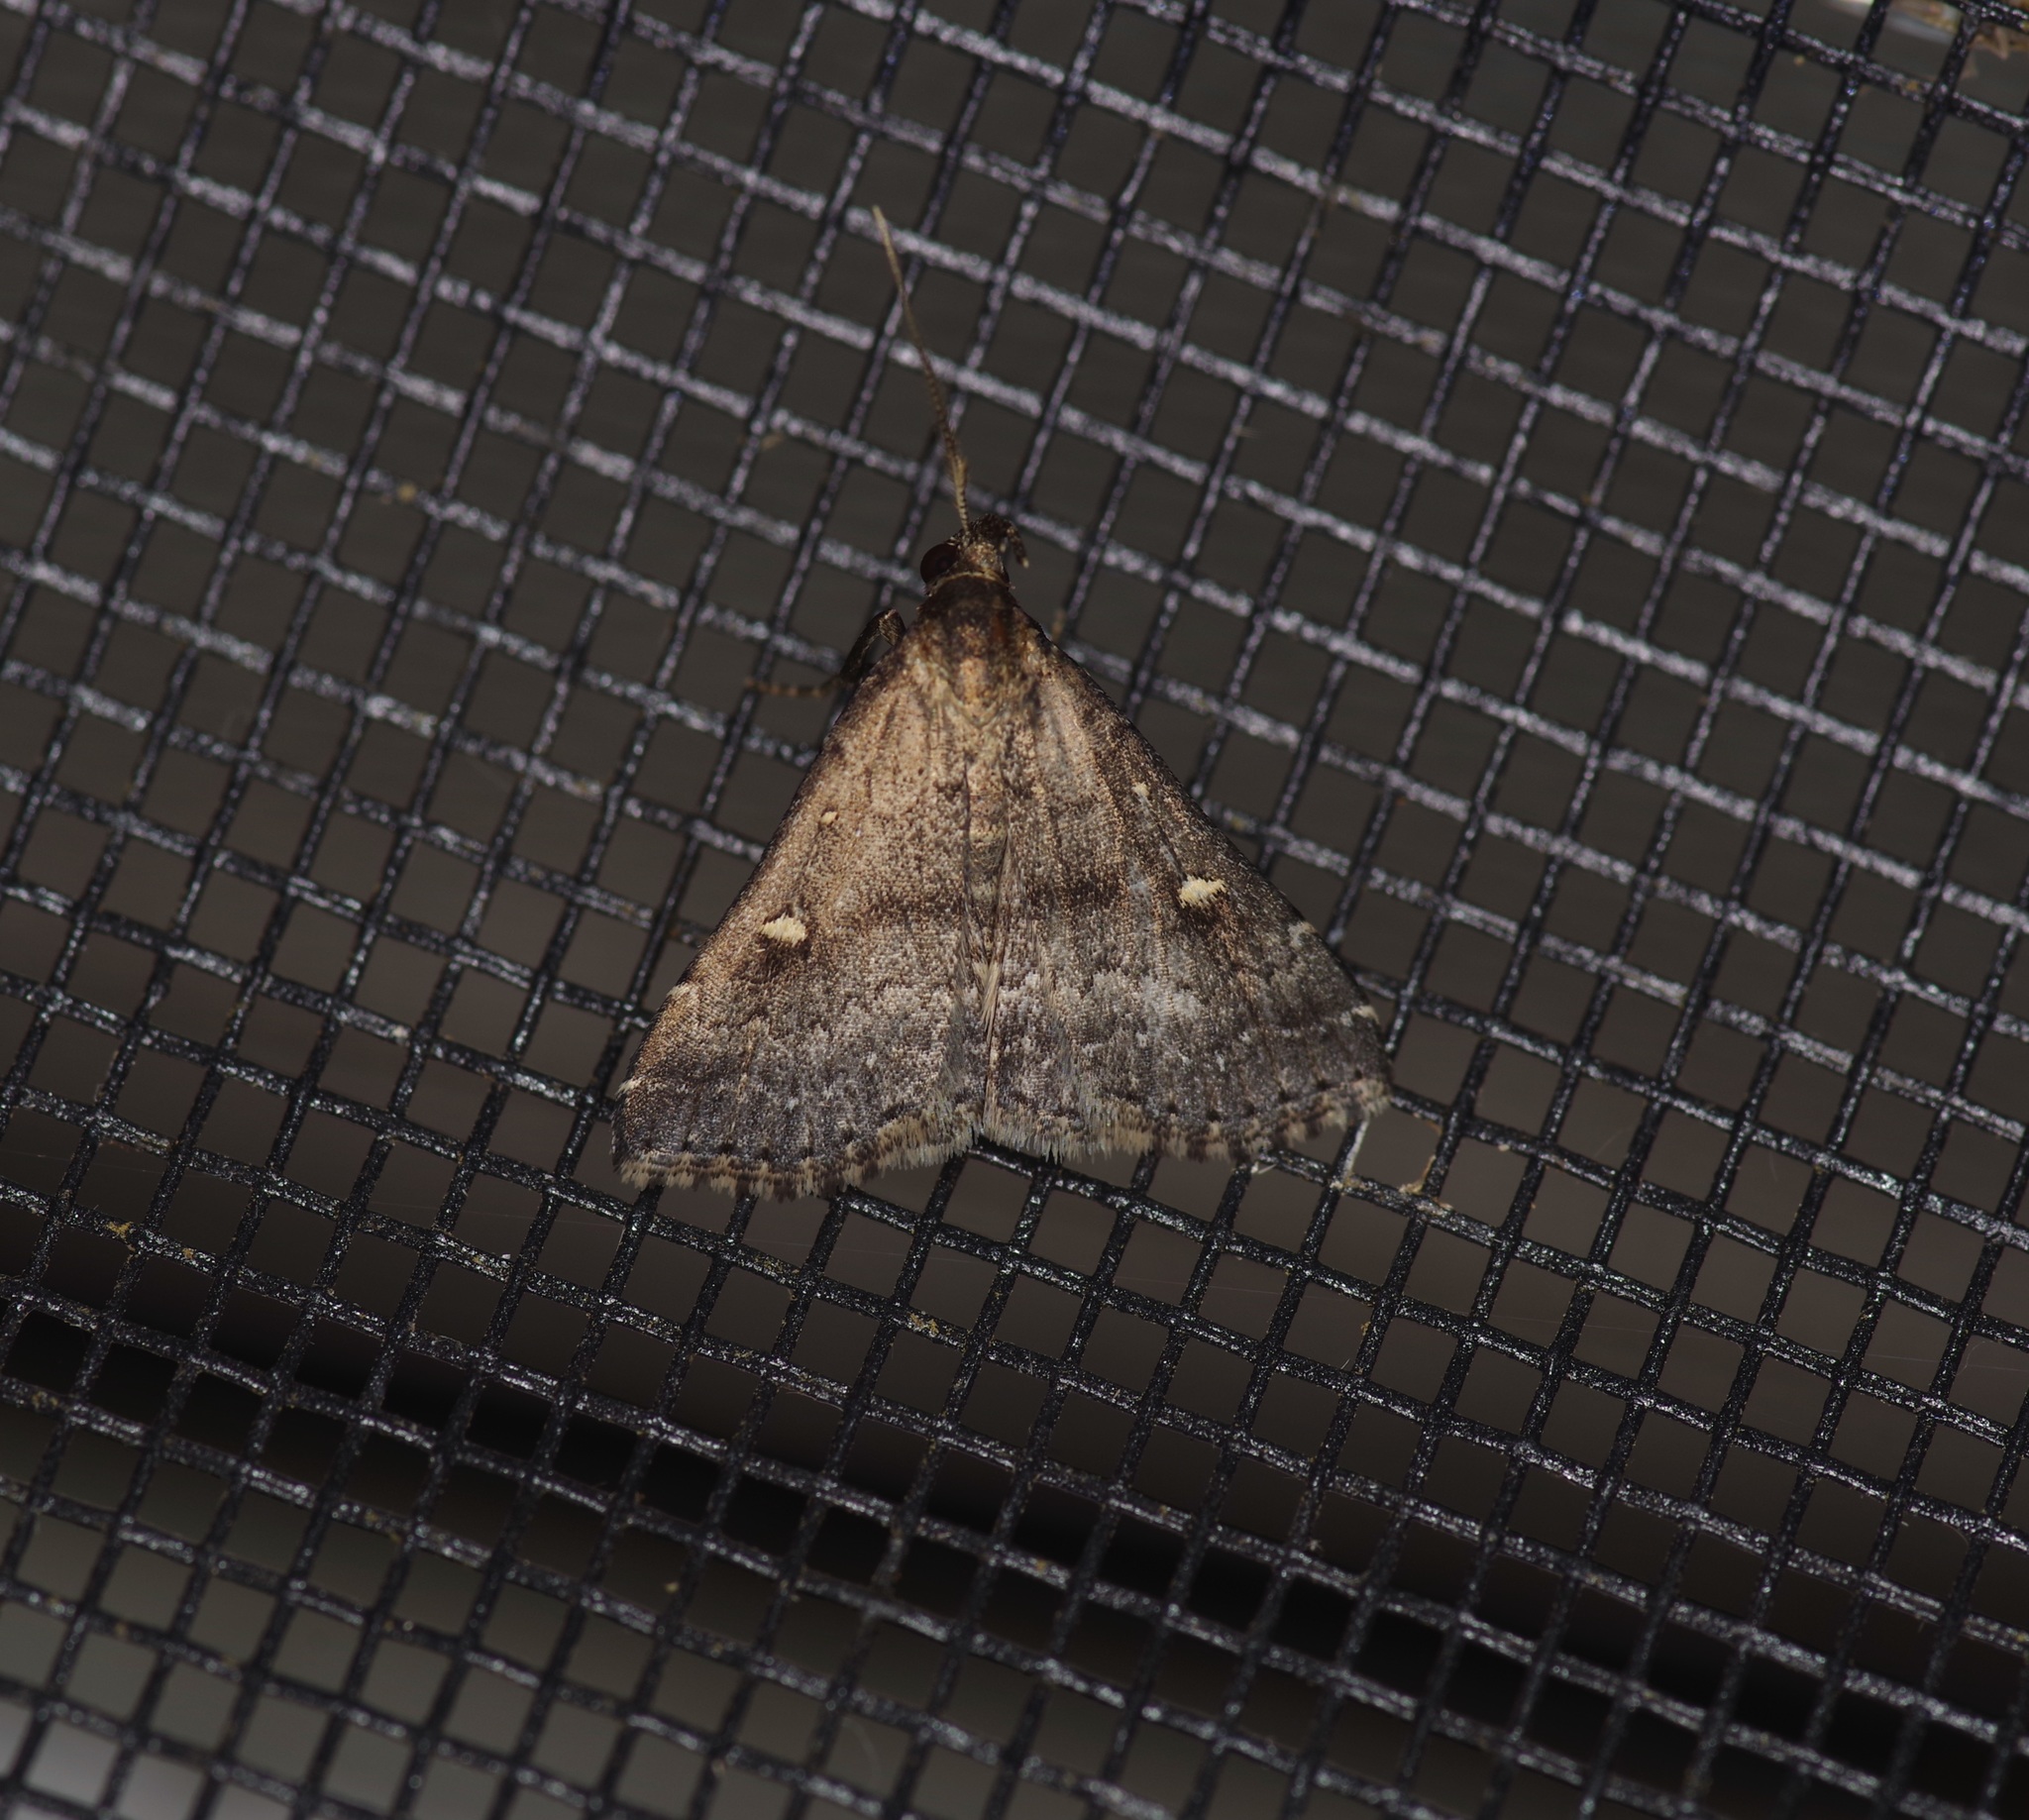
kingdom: Animalia
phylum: Arthropoda
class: Insecta
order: Lepidoptera
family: Erebidae
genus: Tetanolita
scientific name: Tetanolita mynesalis
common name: Smoky tetanolita moth
